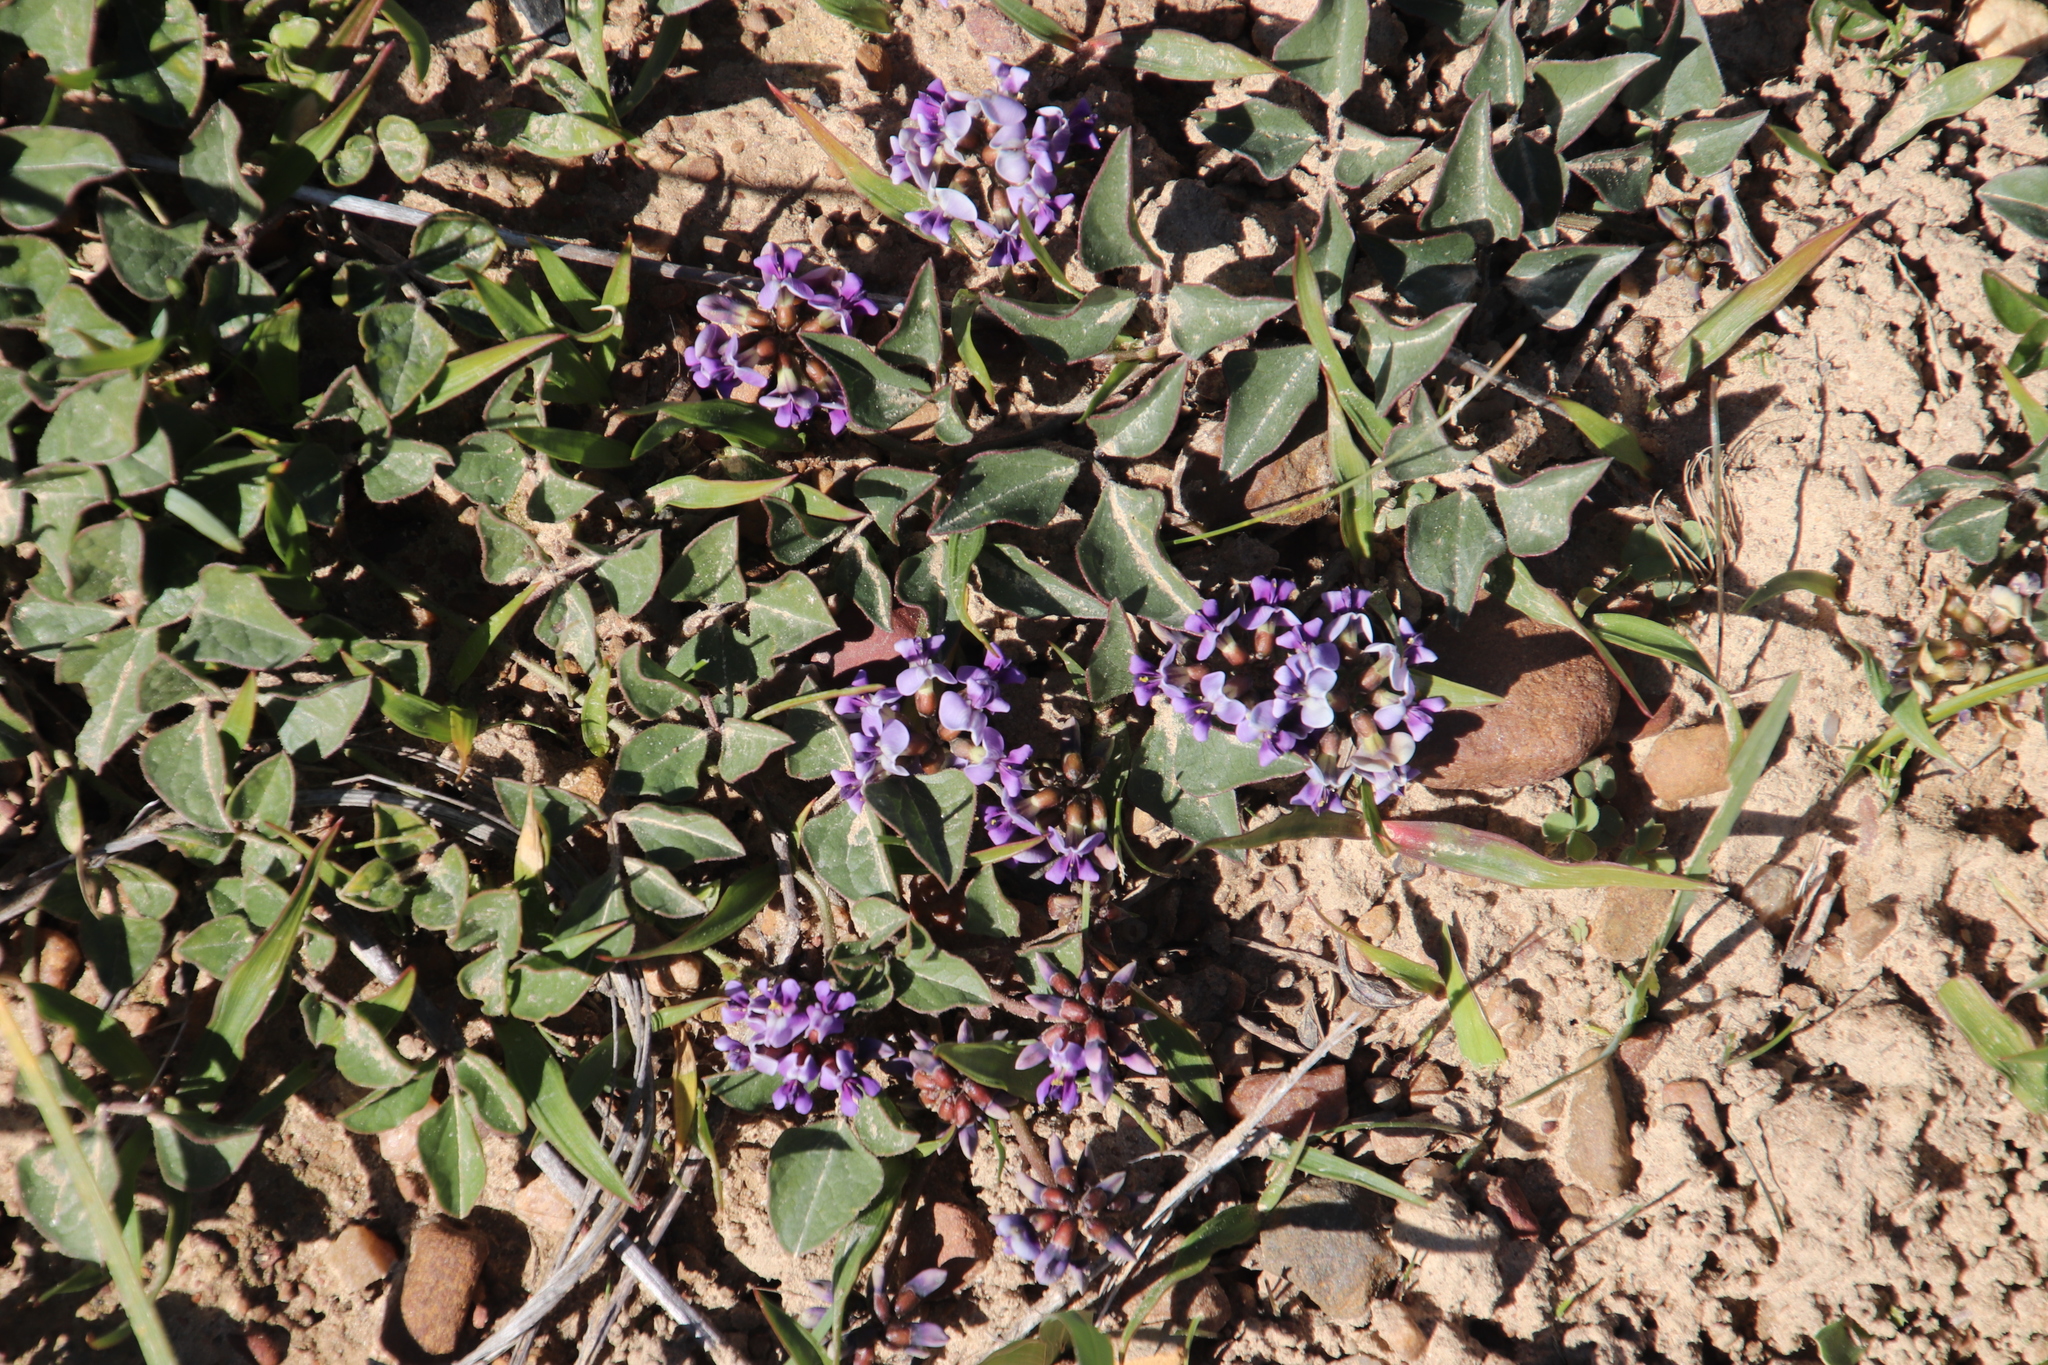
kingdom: Plantae
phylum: Tracheophyta
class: Magnoliopsida
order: Fabales
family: Fabaceae
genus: Dolichos
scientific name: Dolichos decumbens
